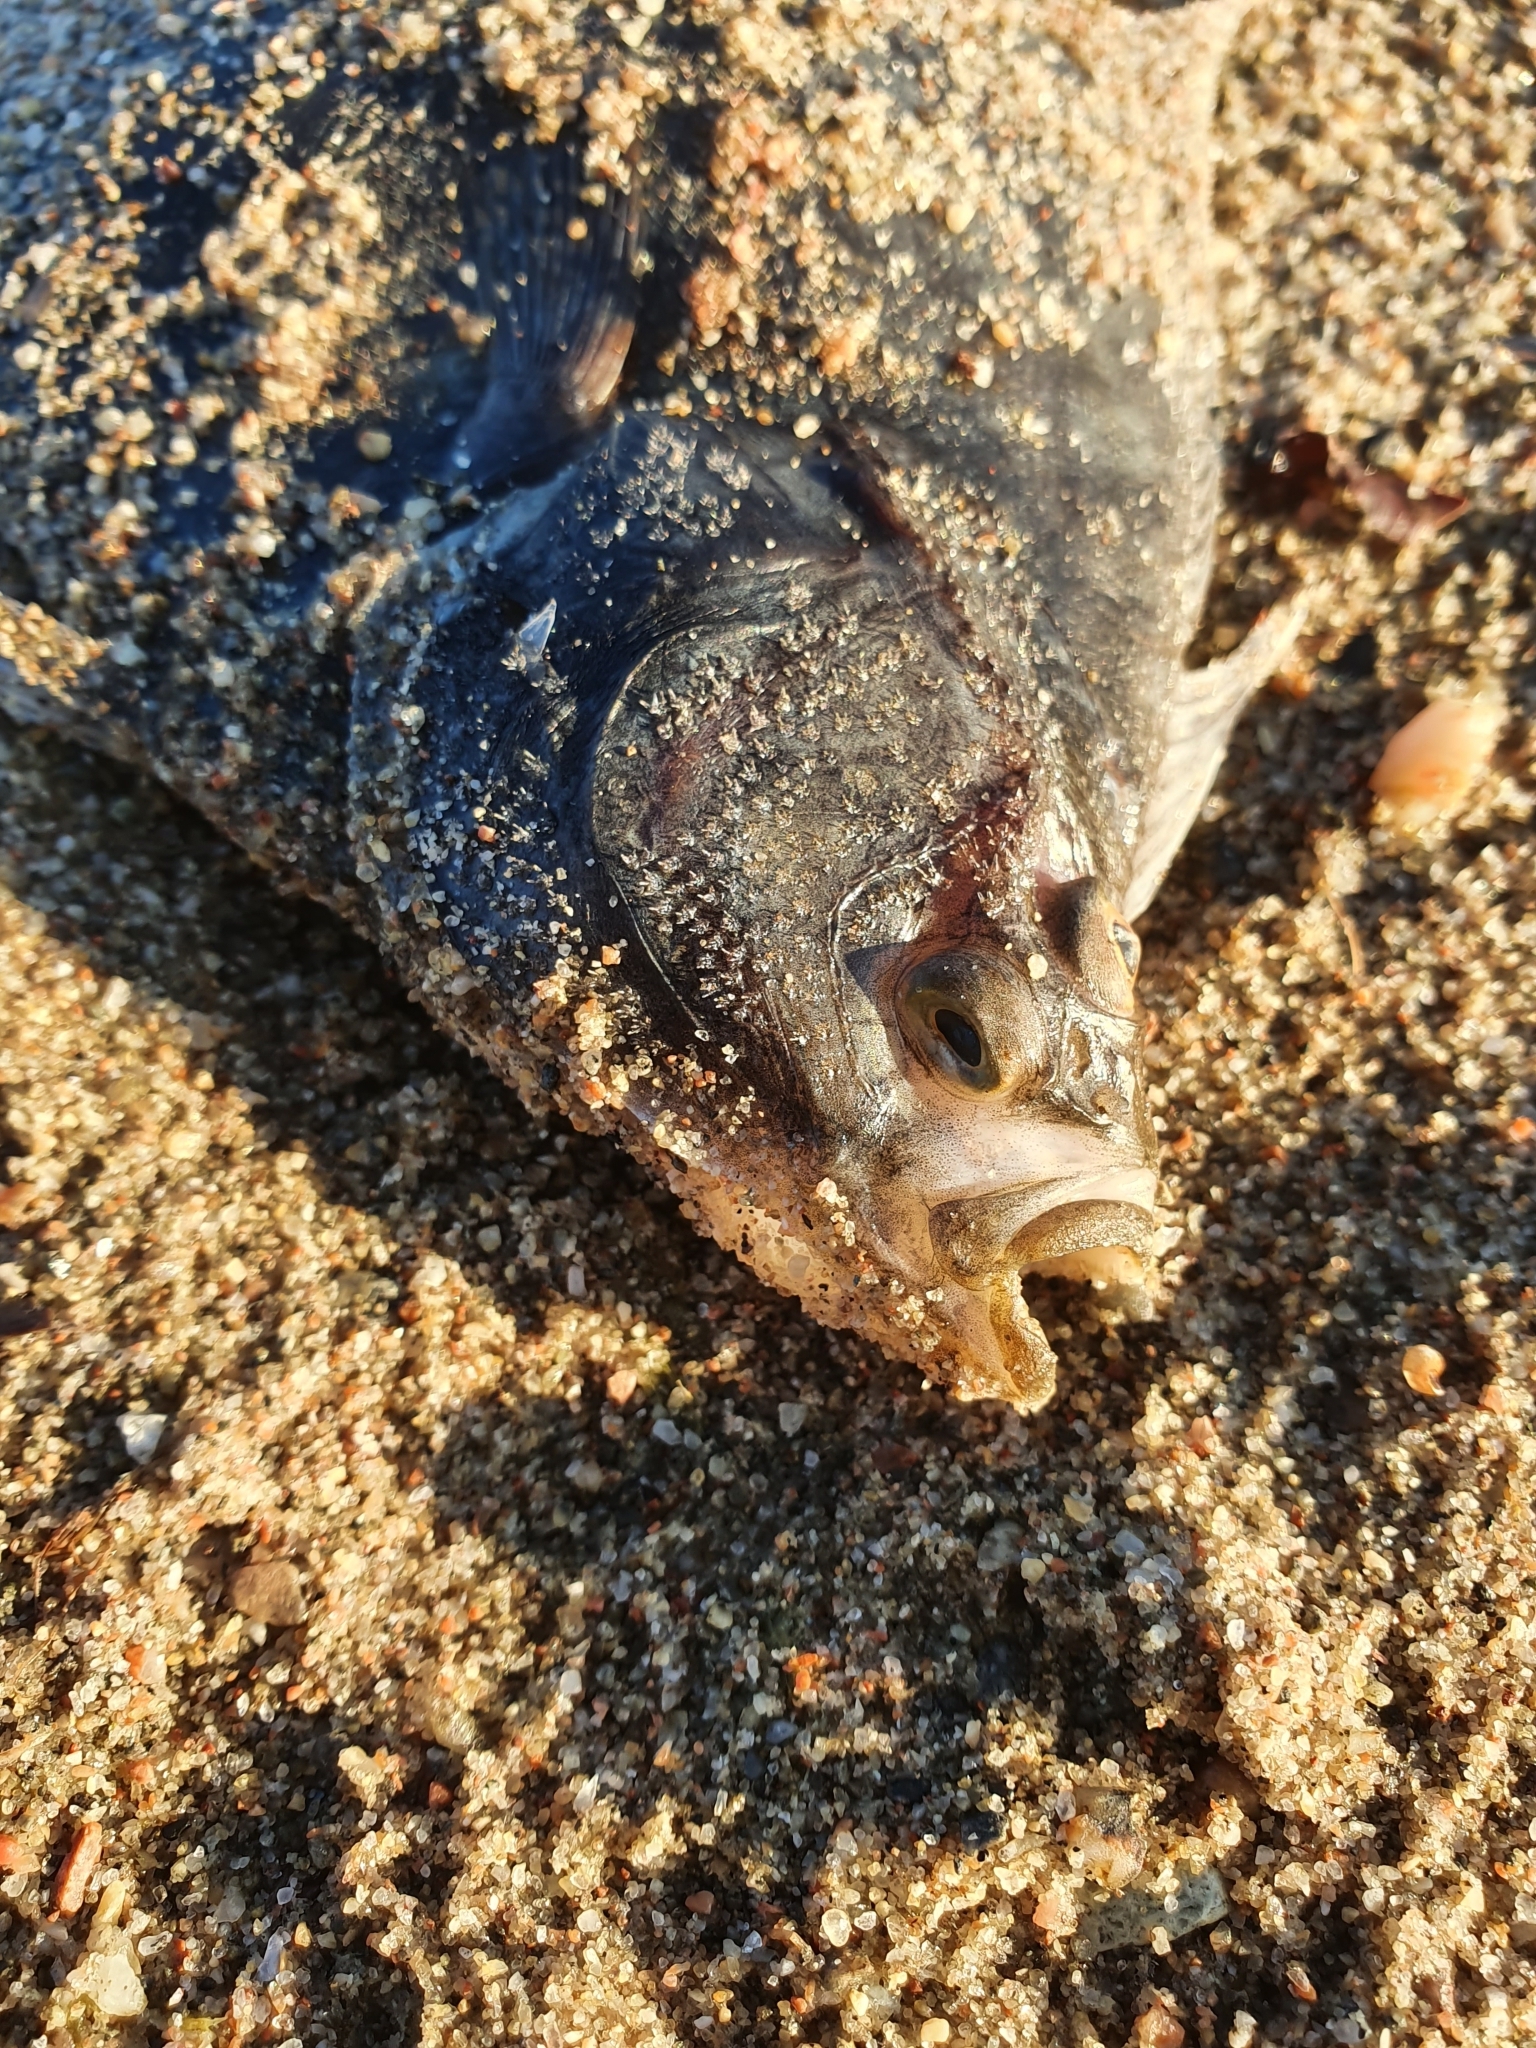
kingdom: Animalia
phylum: Chordata
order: Pleuronectiformes
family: Pleuronectidae
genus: Platichthys
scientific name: Platichthys flesus
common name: European flounder
